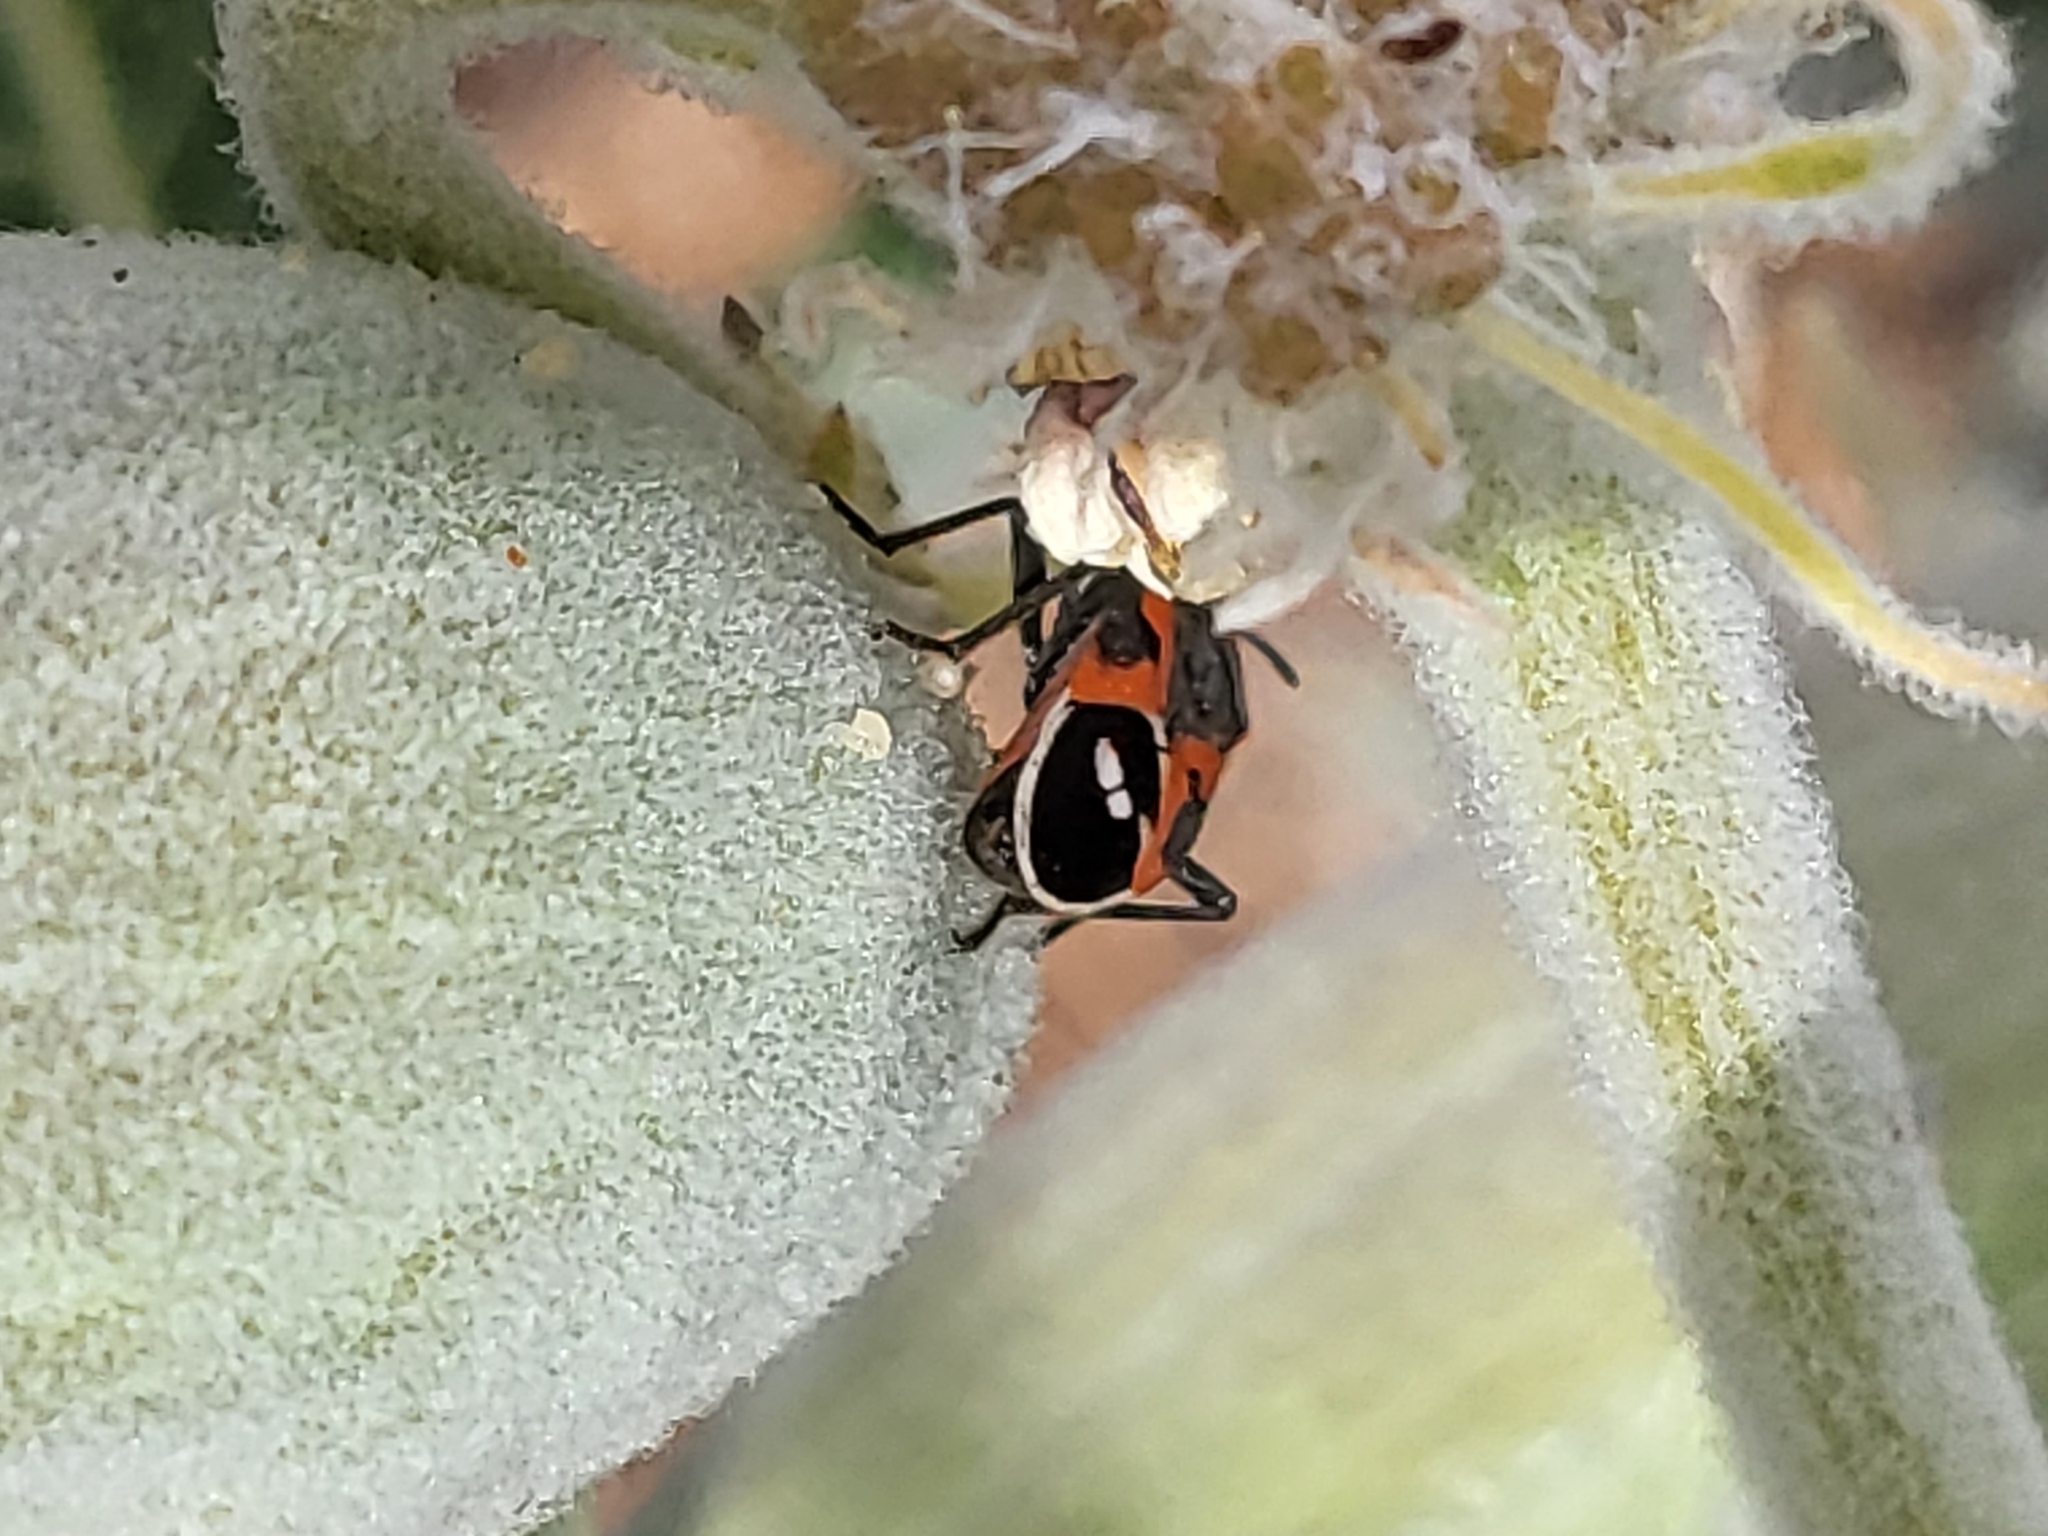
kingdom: Animalia
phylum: Arthropoda
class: Insecta
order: Hemiptera
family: Lygaeidae
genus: Lygaeus
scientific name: Lygaeus kalmii
